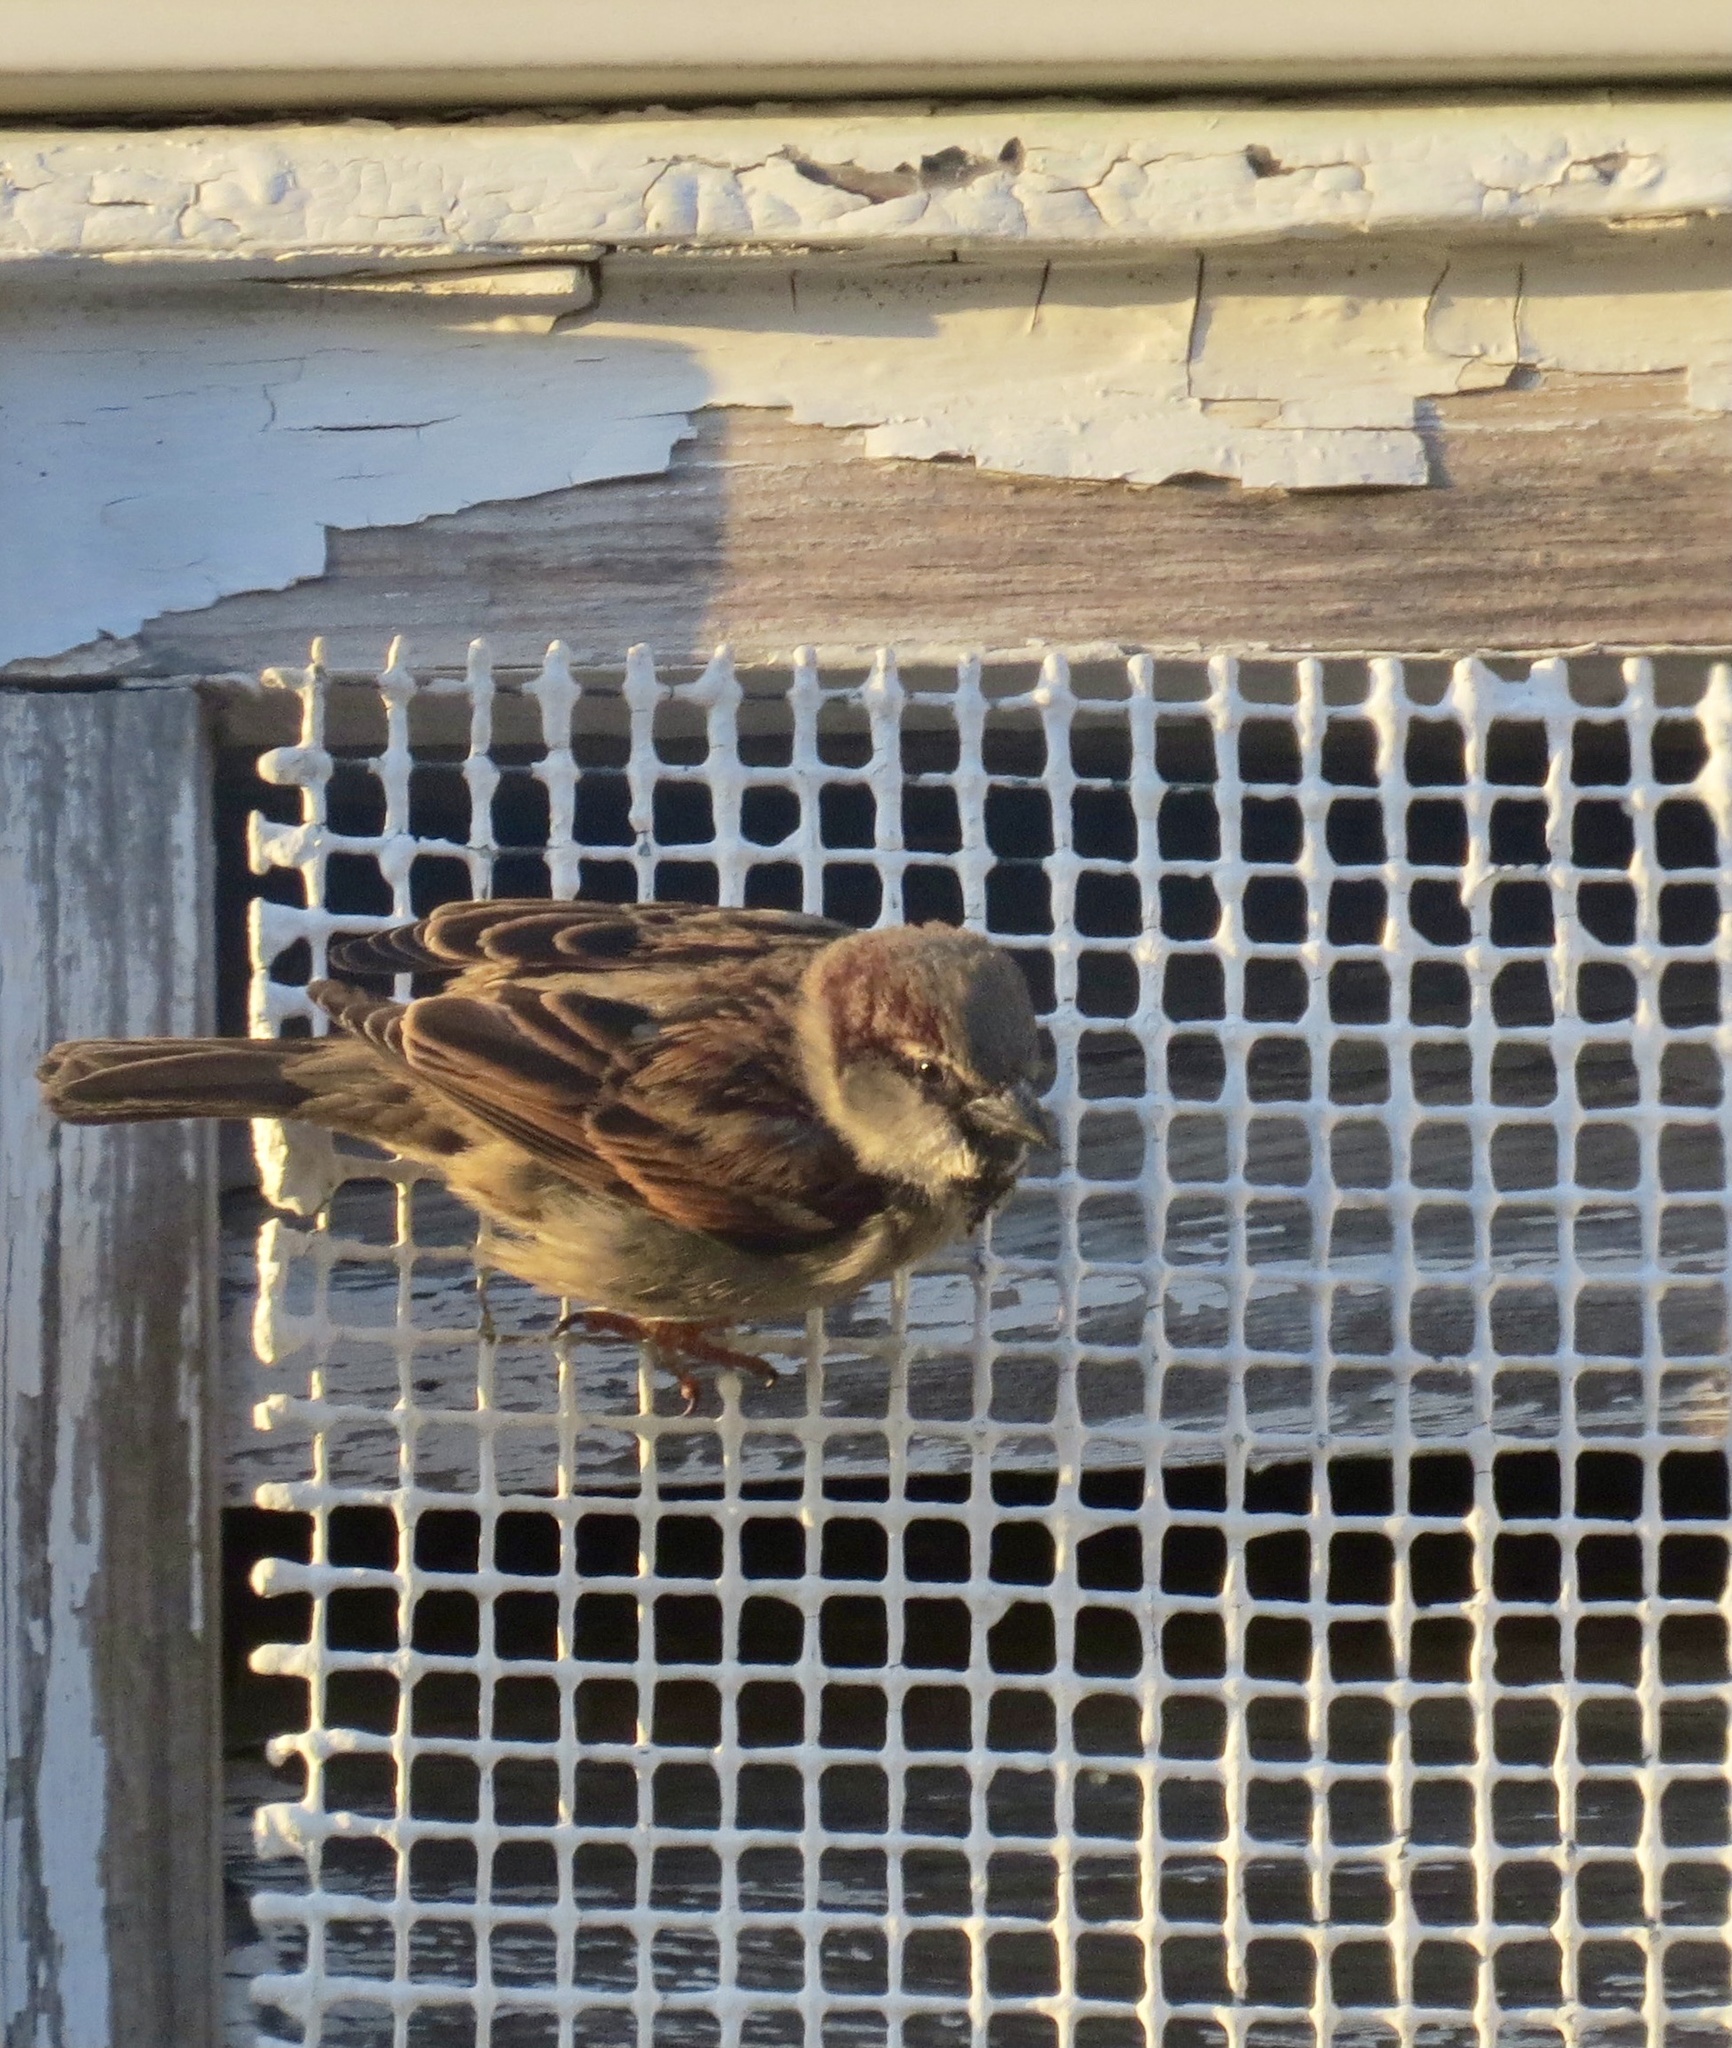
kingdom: Animalia
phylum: Chordata
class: Aves
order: Passeriformes
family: Passeridae
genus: Passer
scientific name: Passer domesticus
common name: House sparrow
